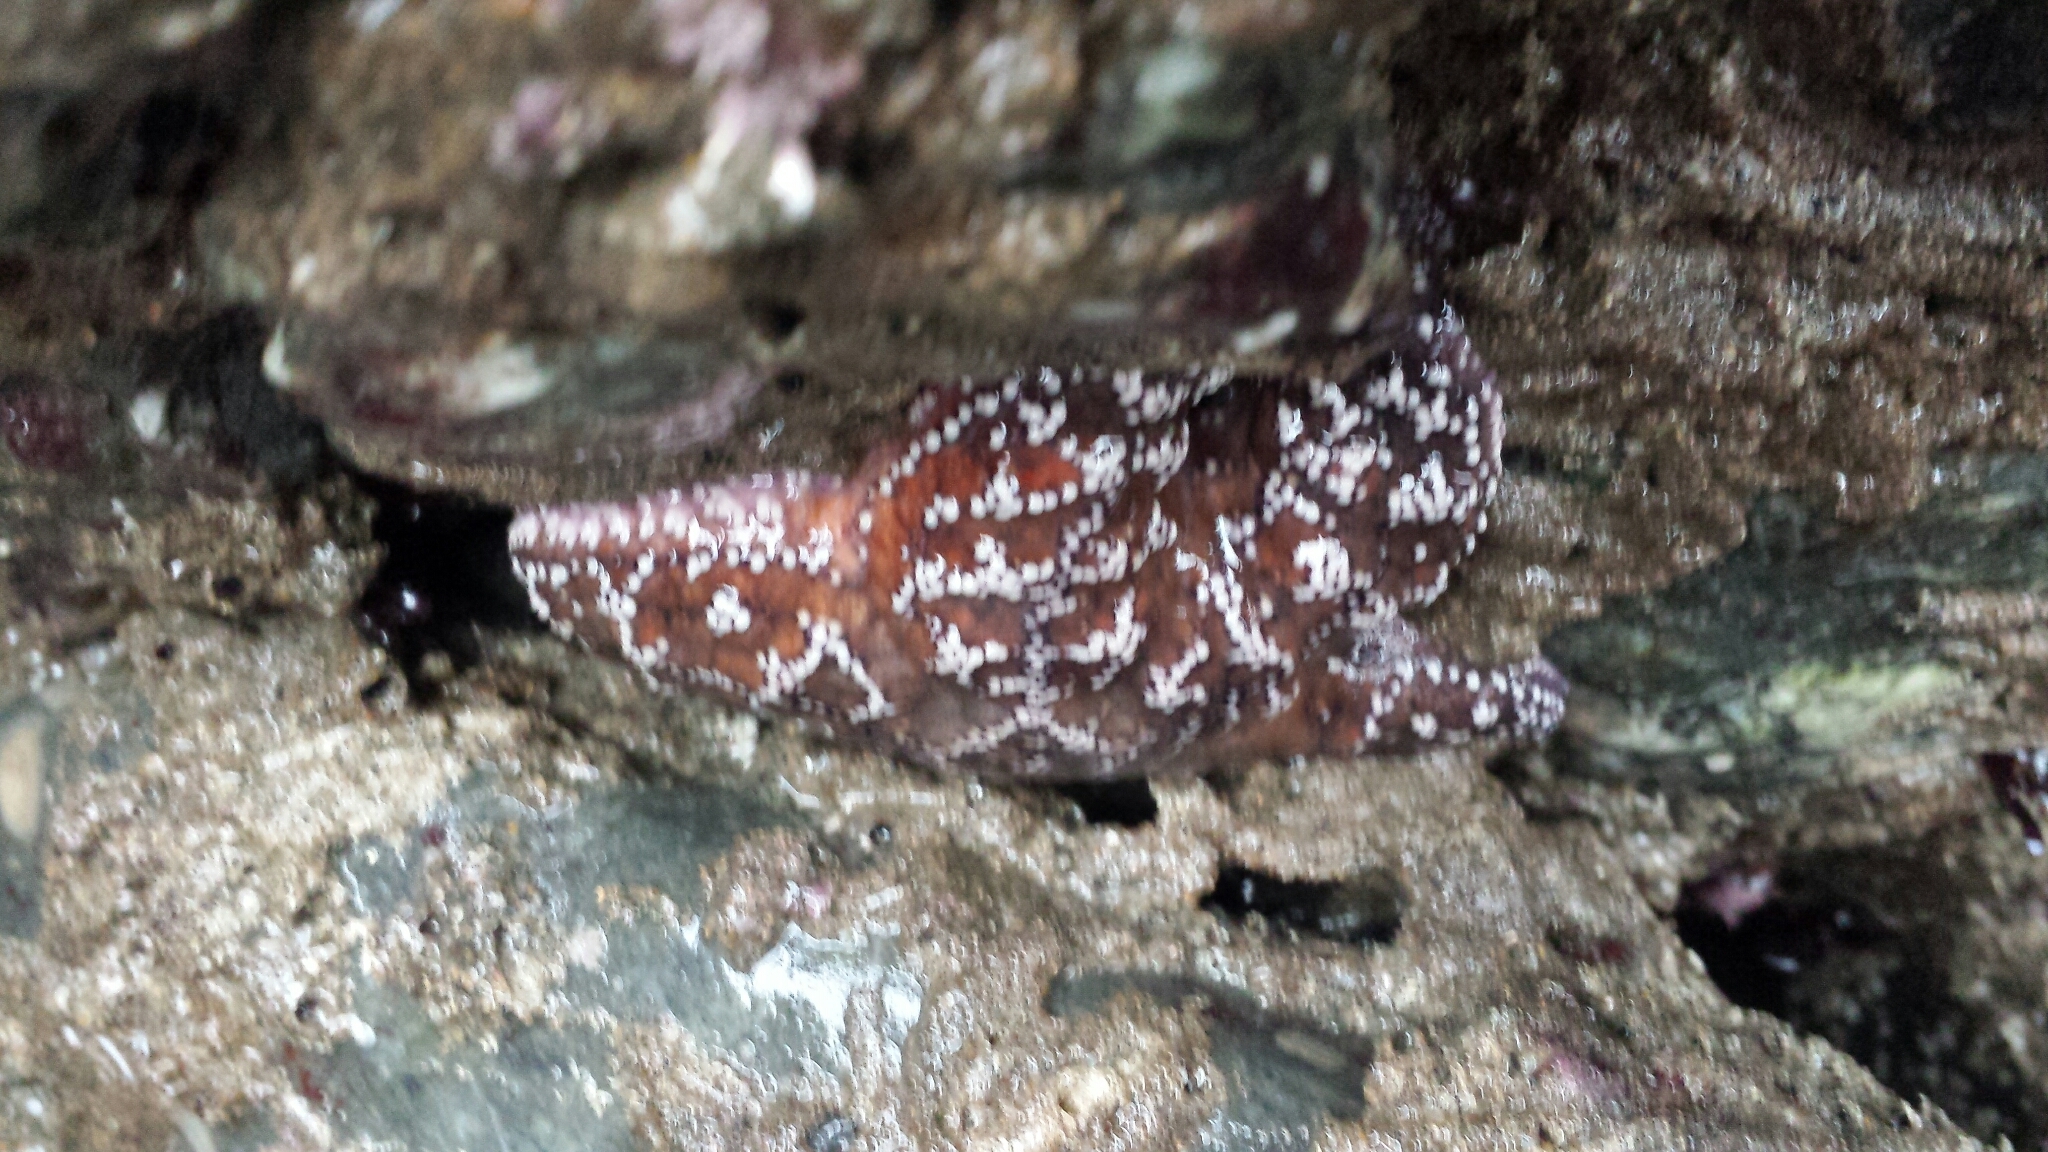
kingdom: Animalia
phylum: Echinodermata
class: Asteroidea
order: Forcipulatida
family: Asteriidae
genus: Pisaster
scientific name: Pisaster ochraceus
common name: Ochre stars
